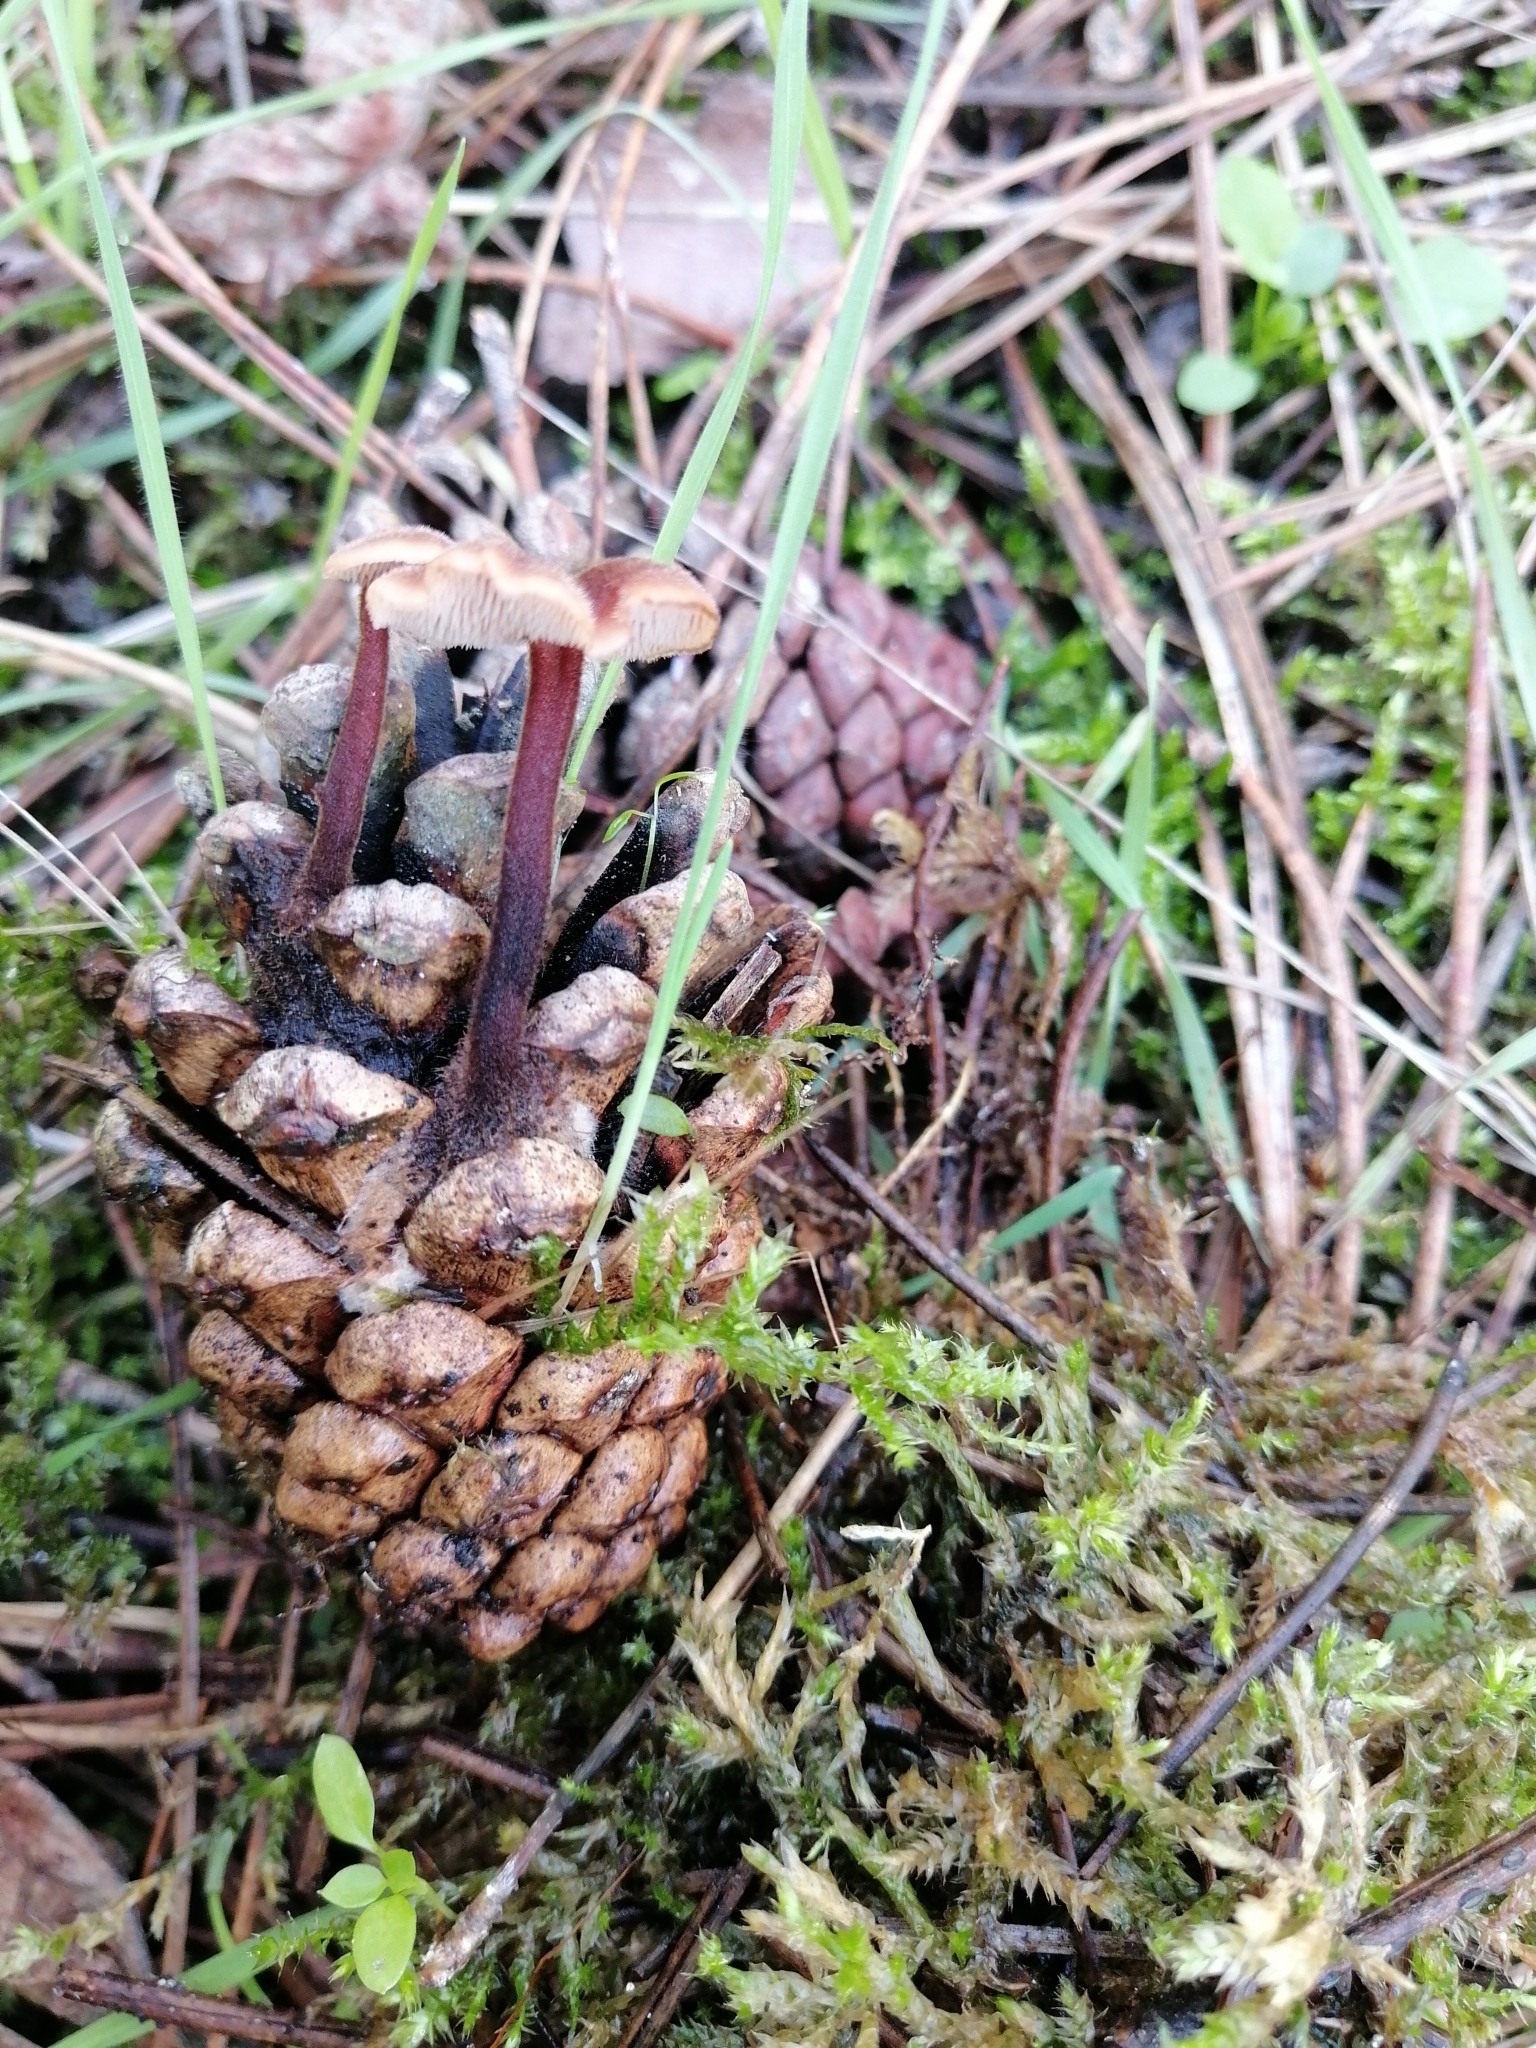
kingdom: Fungi
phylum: Basidiomycota
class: Agaricomycetes
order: Russulales
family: Auriscalpiaceae
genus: Auriscalpium
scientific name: Auriscalpium vulgare
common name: Earpick fungus
